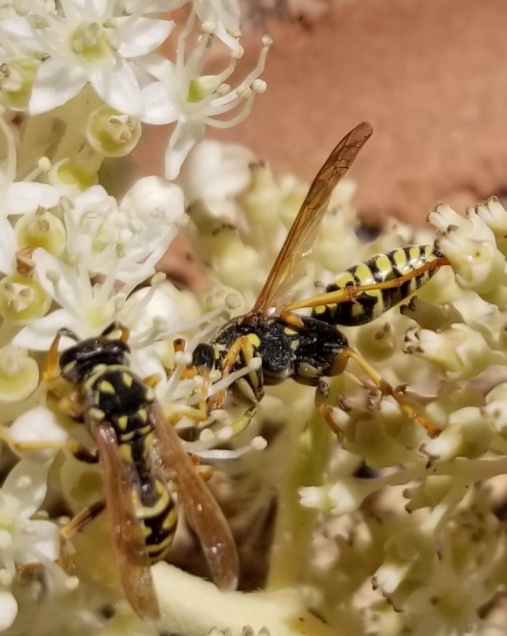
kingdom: Animalia
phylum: Arthropoda
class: Insecta
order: Hymenoptera
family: Eumenidae
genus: Polistes
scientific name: Polistes dominula
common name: Paper wasp
